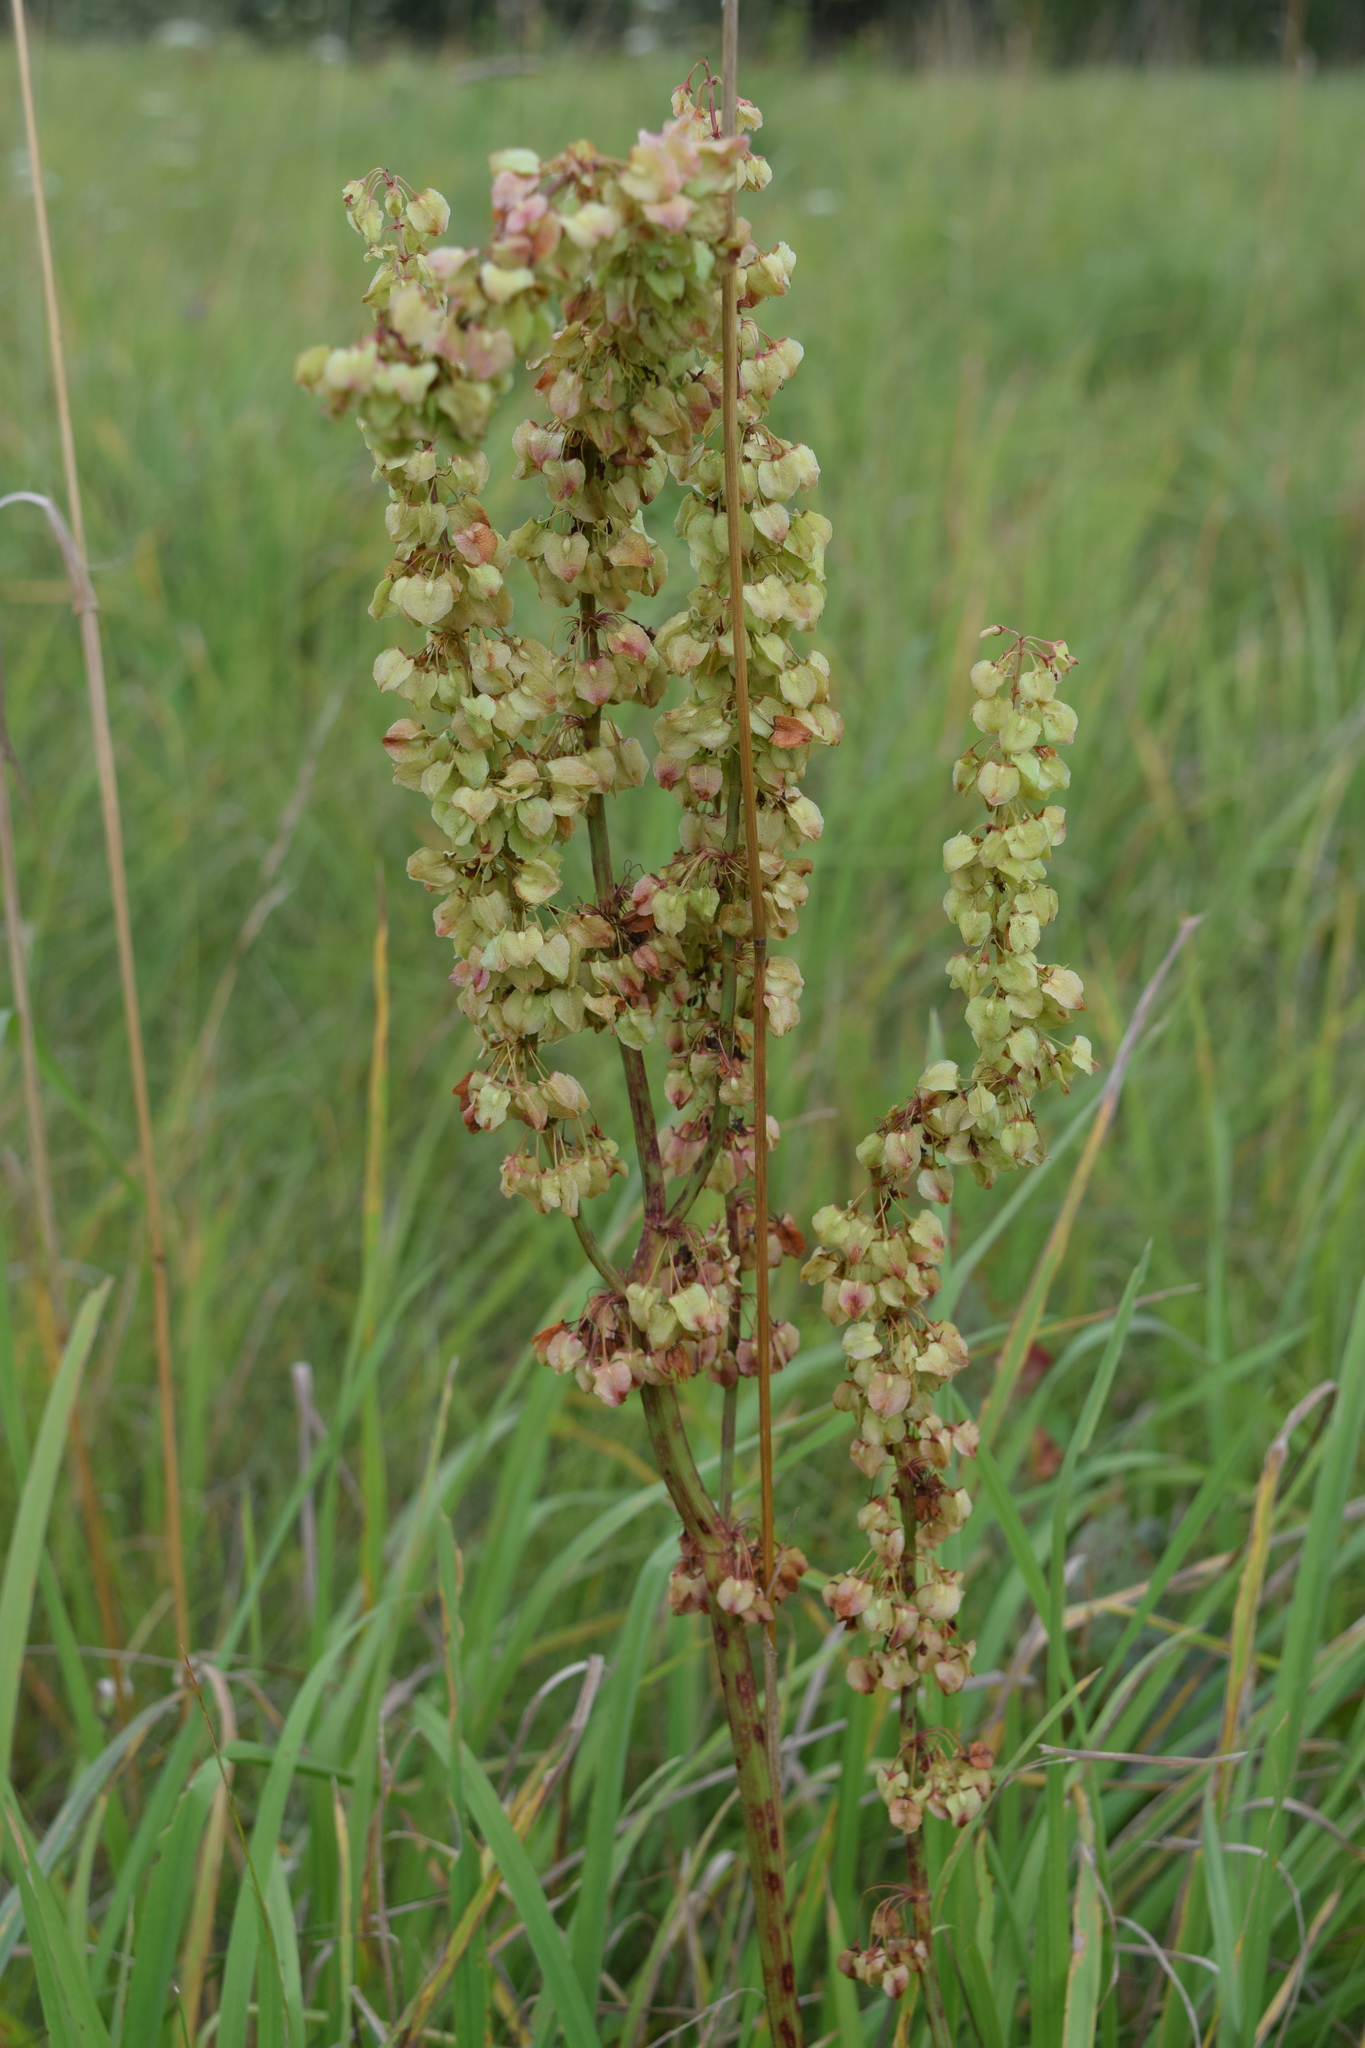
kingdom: Plantae
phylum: Tracheophyta
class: Magnoliopsida
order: Caryophyllales
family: Polygonaceae
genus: Rumex
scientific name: Rumex confertus
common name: Russian dock
